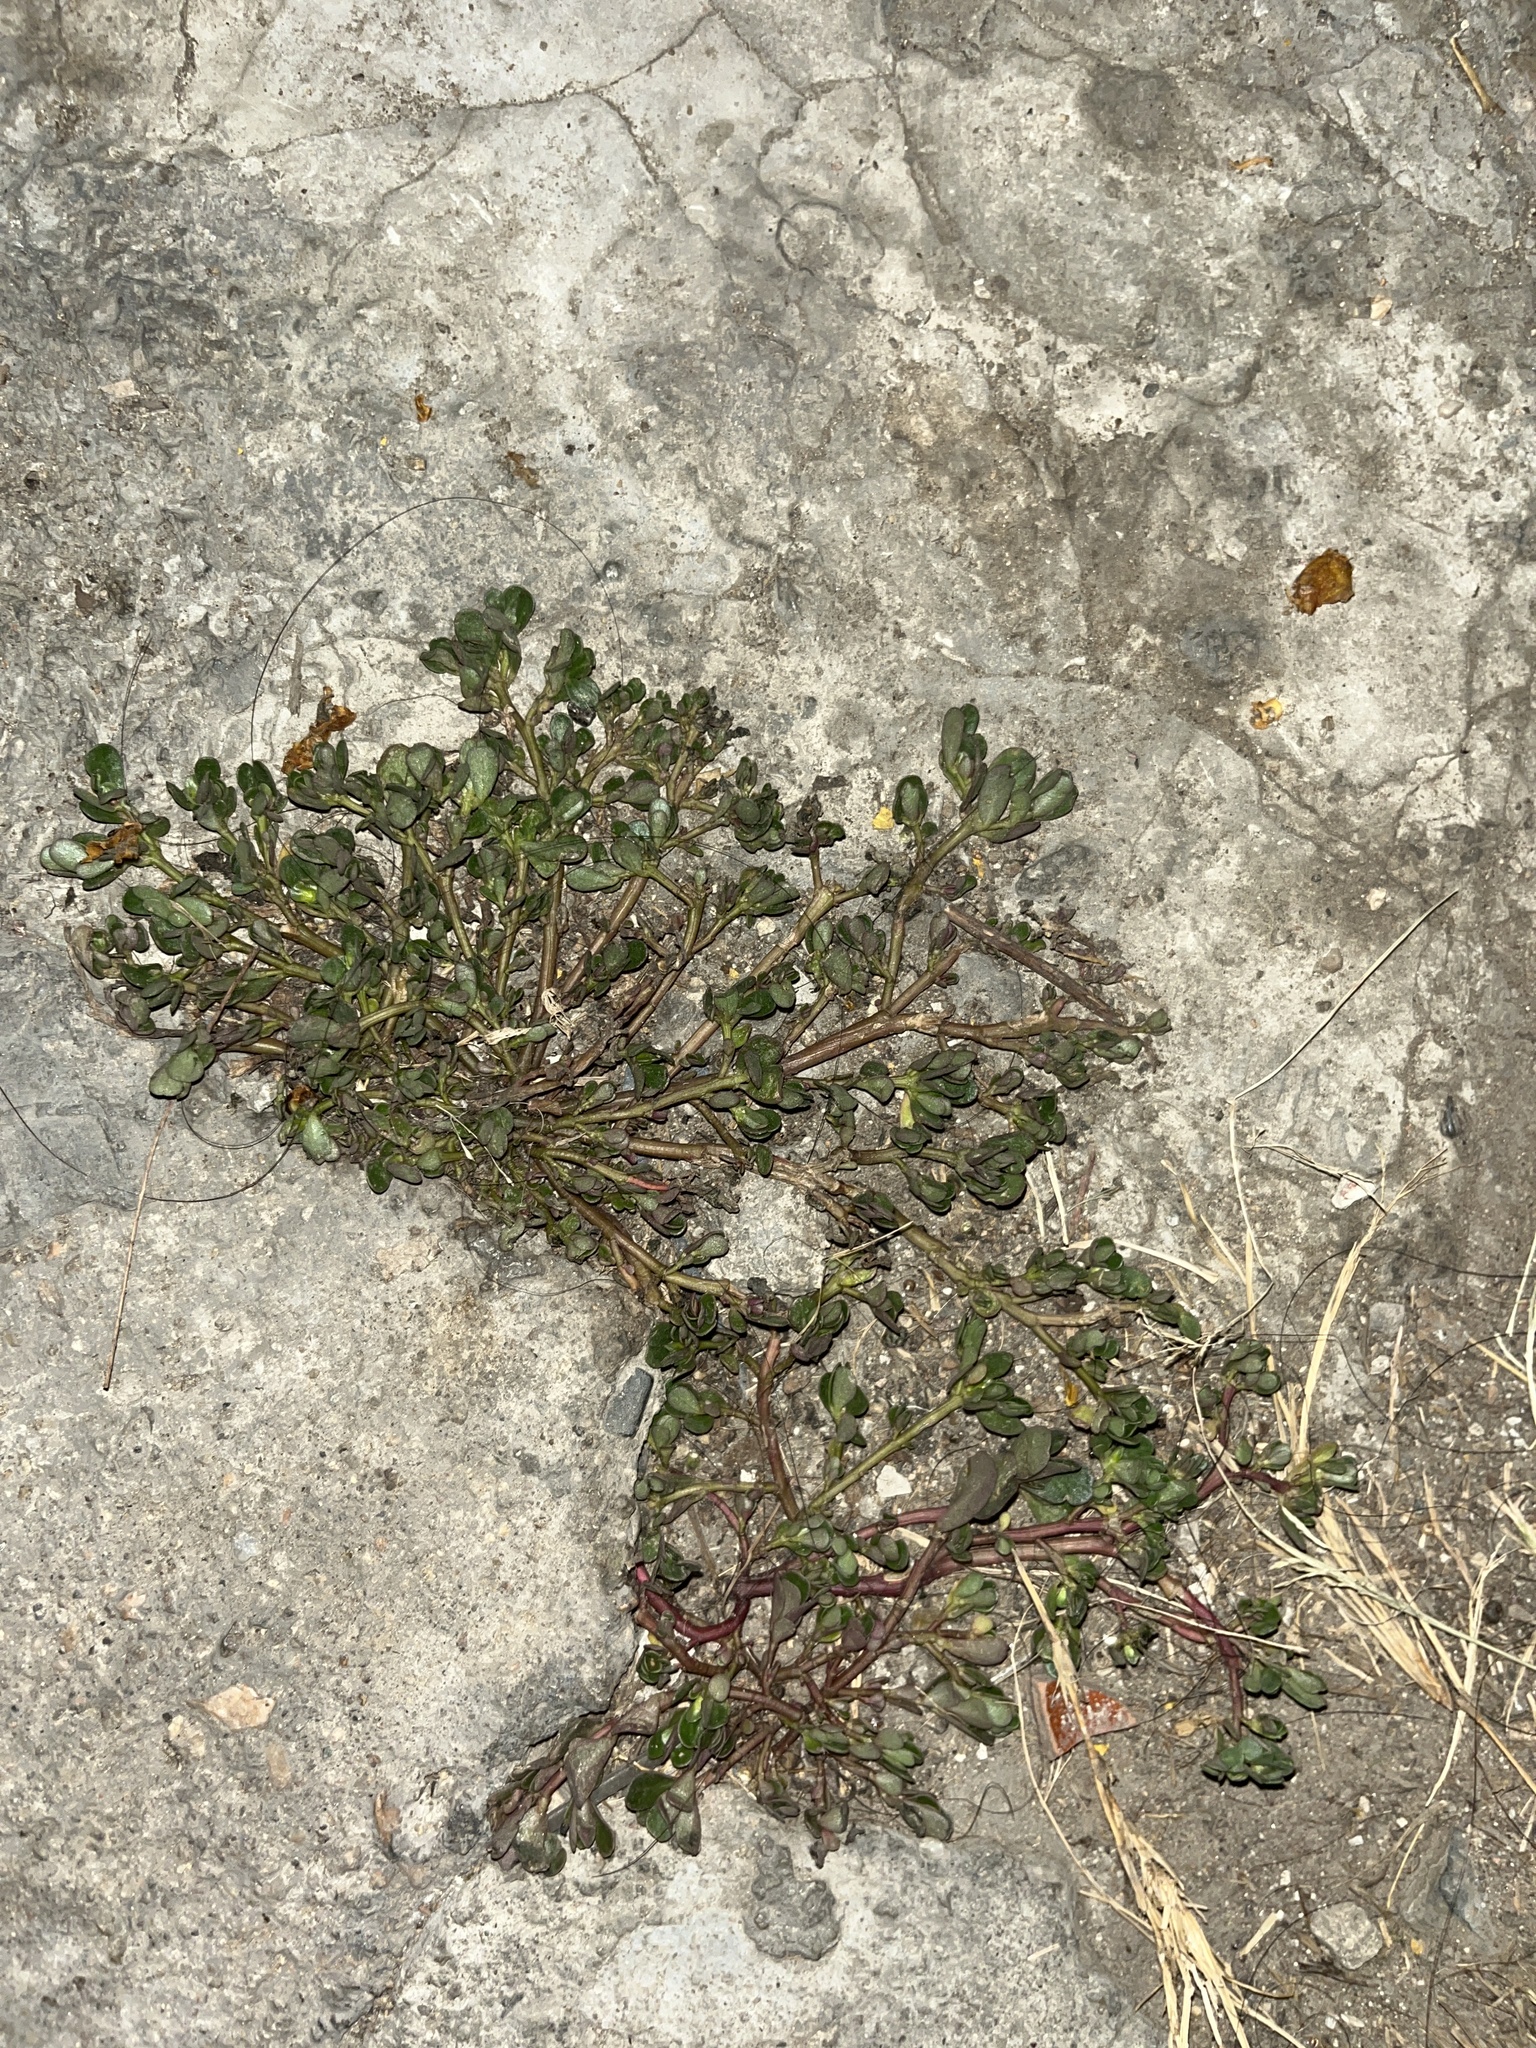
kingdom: Plantae
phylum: Tracheophyta
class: Magnoliopsida
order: Caryophyllales
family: Portulacaceae
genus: Portulaca
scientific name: Portulaca oleracea
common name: Common purslane
